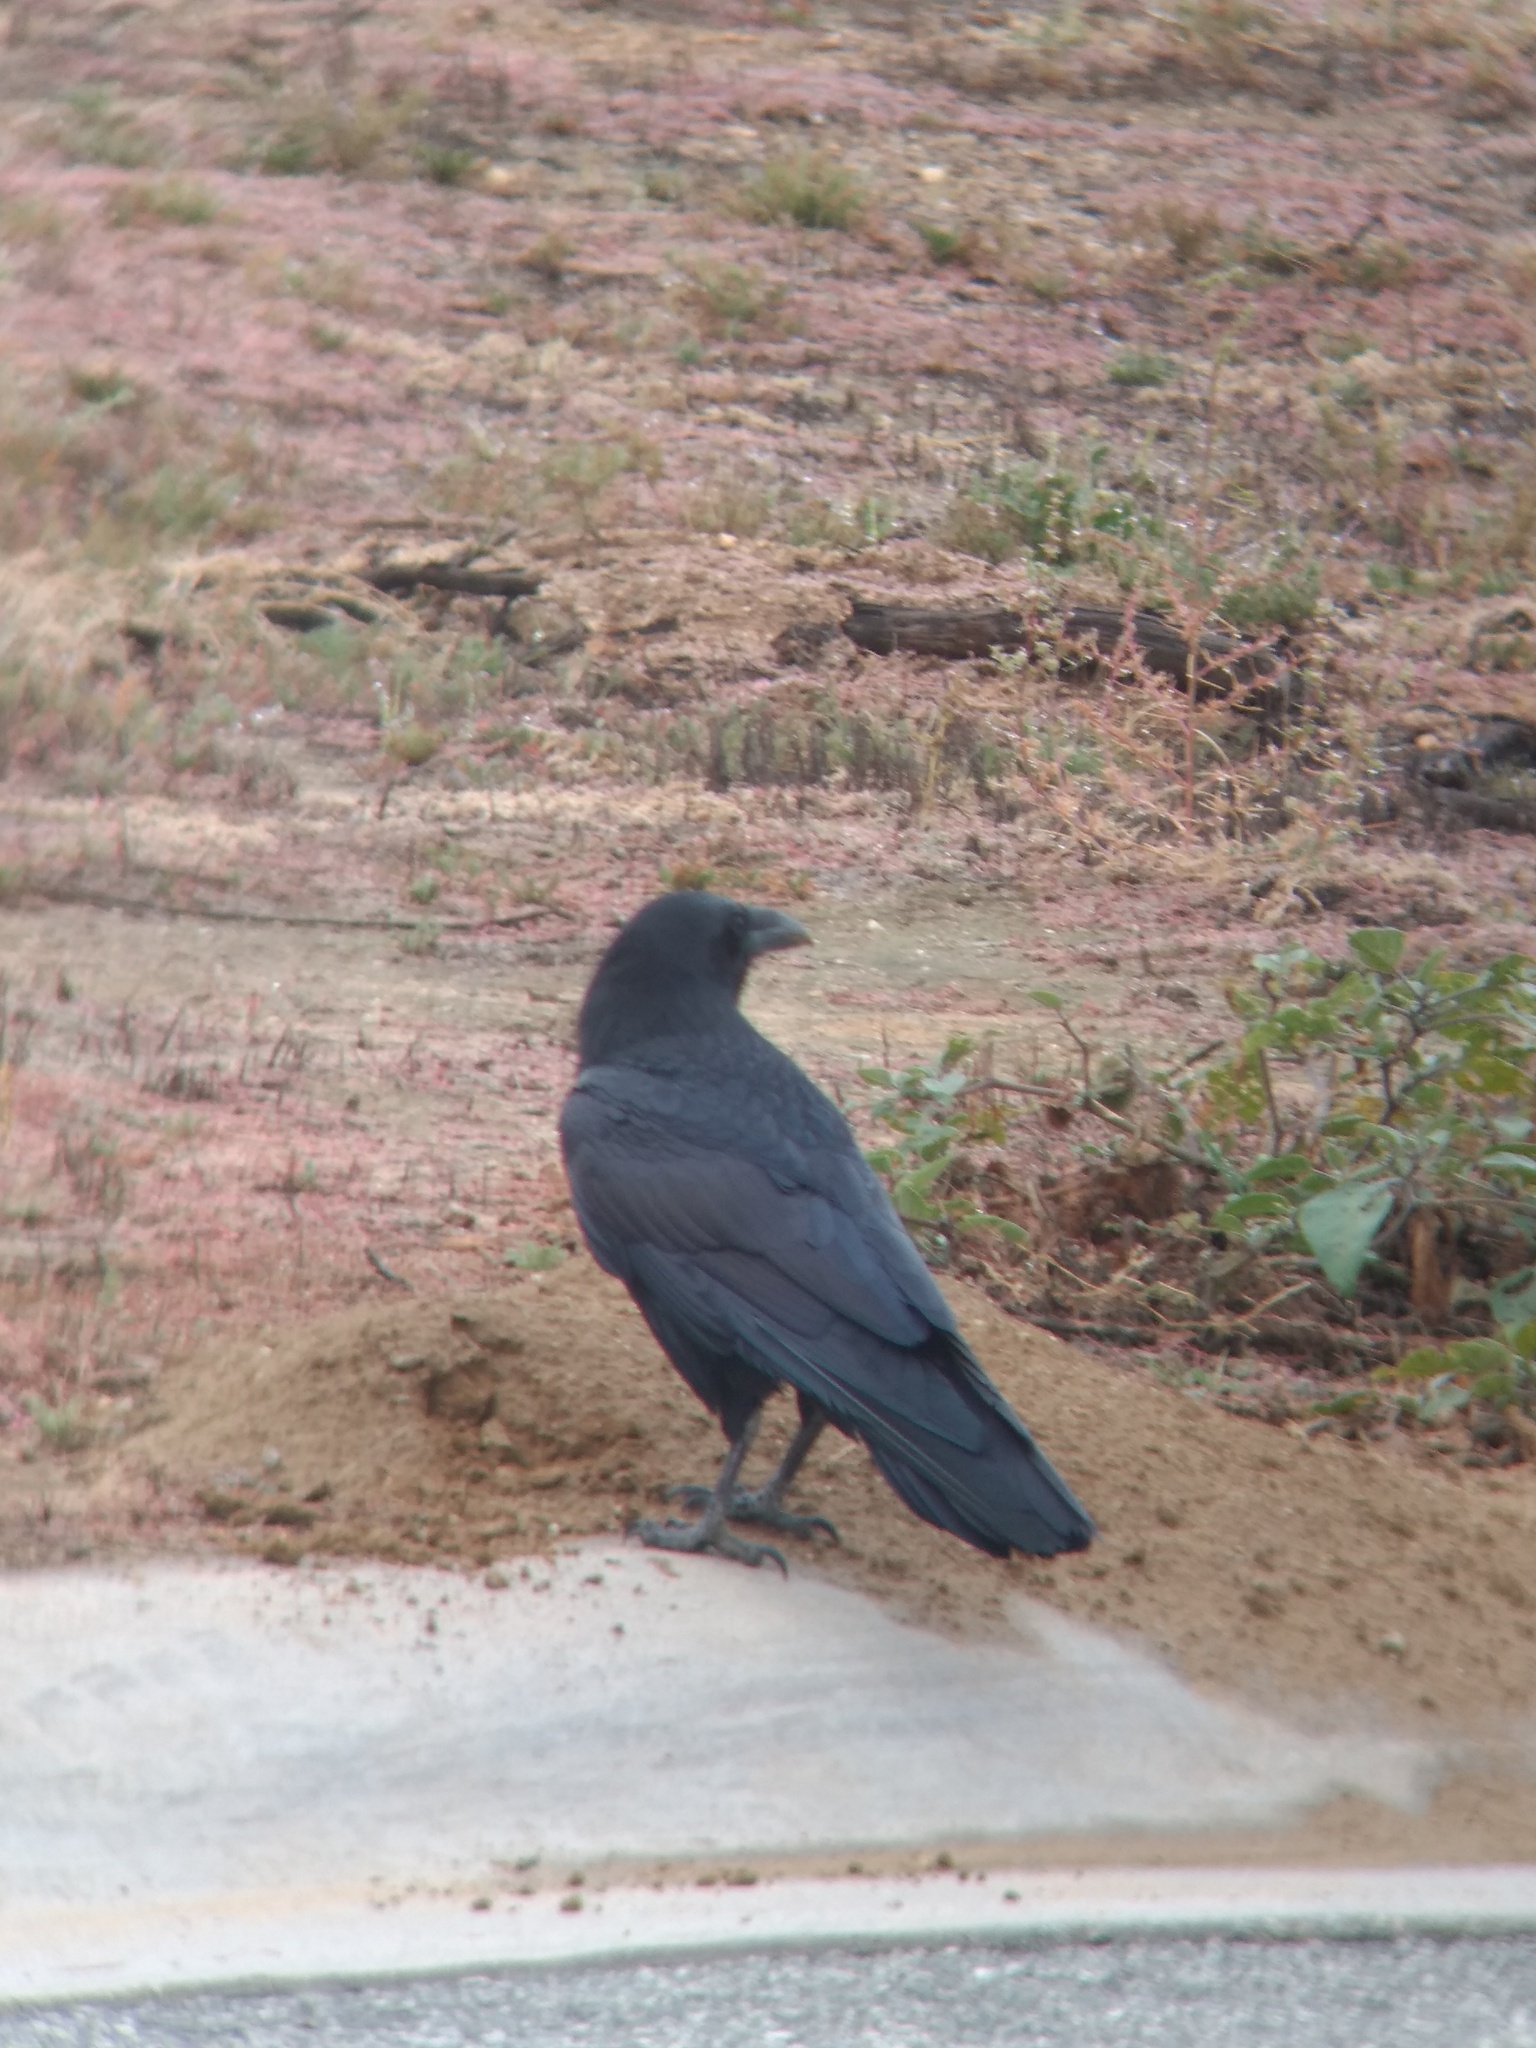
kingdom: Animalia
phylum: Chordata
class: Aves
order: Passeriformes
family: Corvidae
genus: Corvus
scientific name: Corvus corax
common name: Common raven
